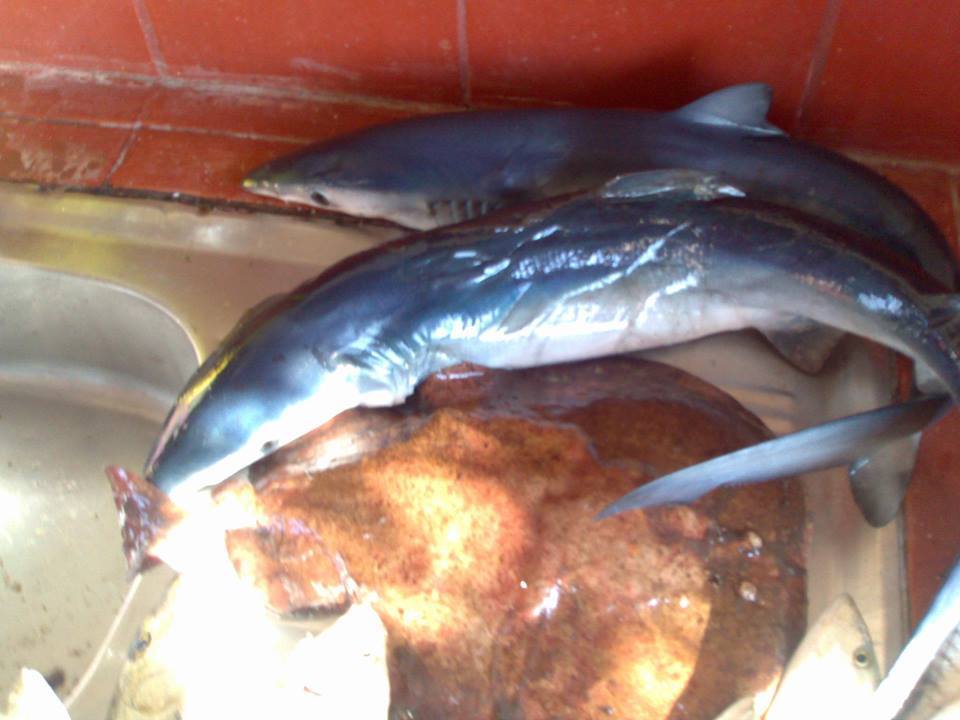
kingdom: Animalia
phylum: Chordata
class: Elasmobranchii
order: Carcharhiniformes
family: Carcharhinidae
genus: Prionace
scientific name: Prionace glauca
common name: Blue shark
